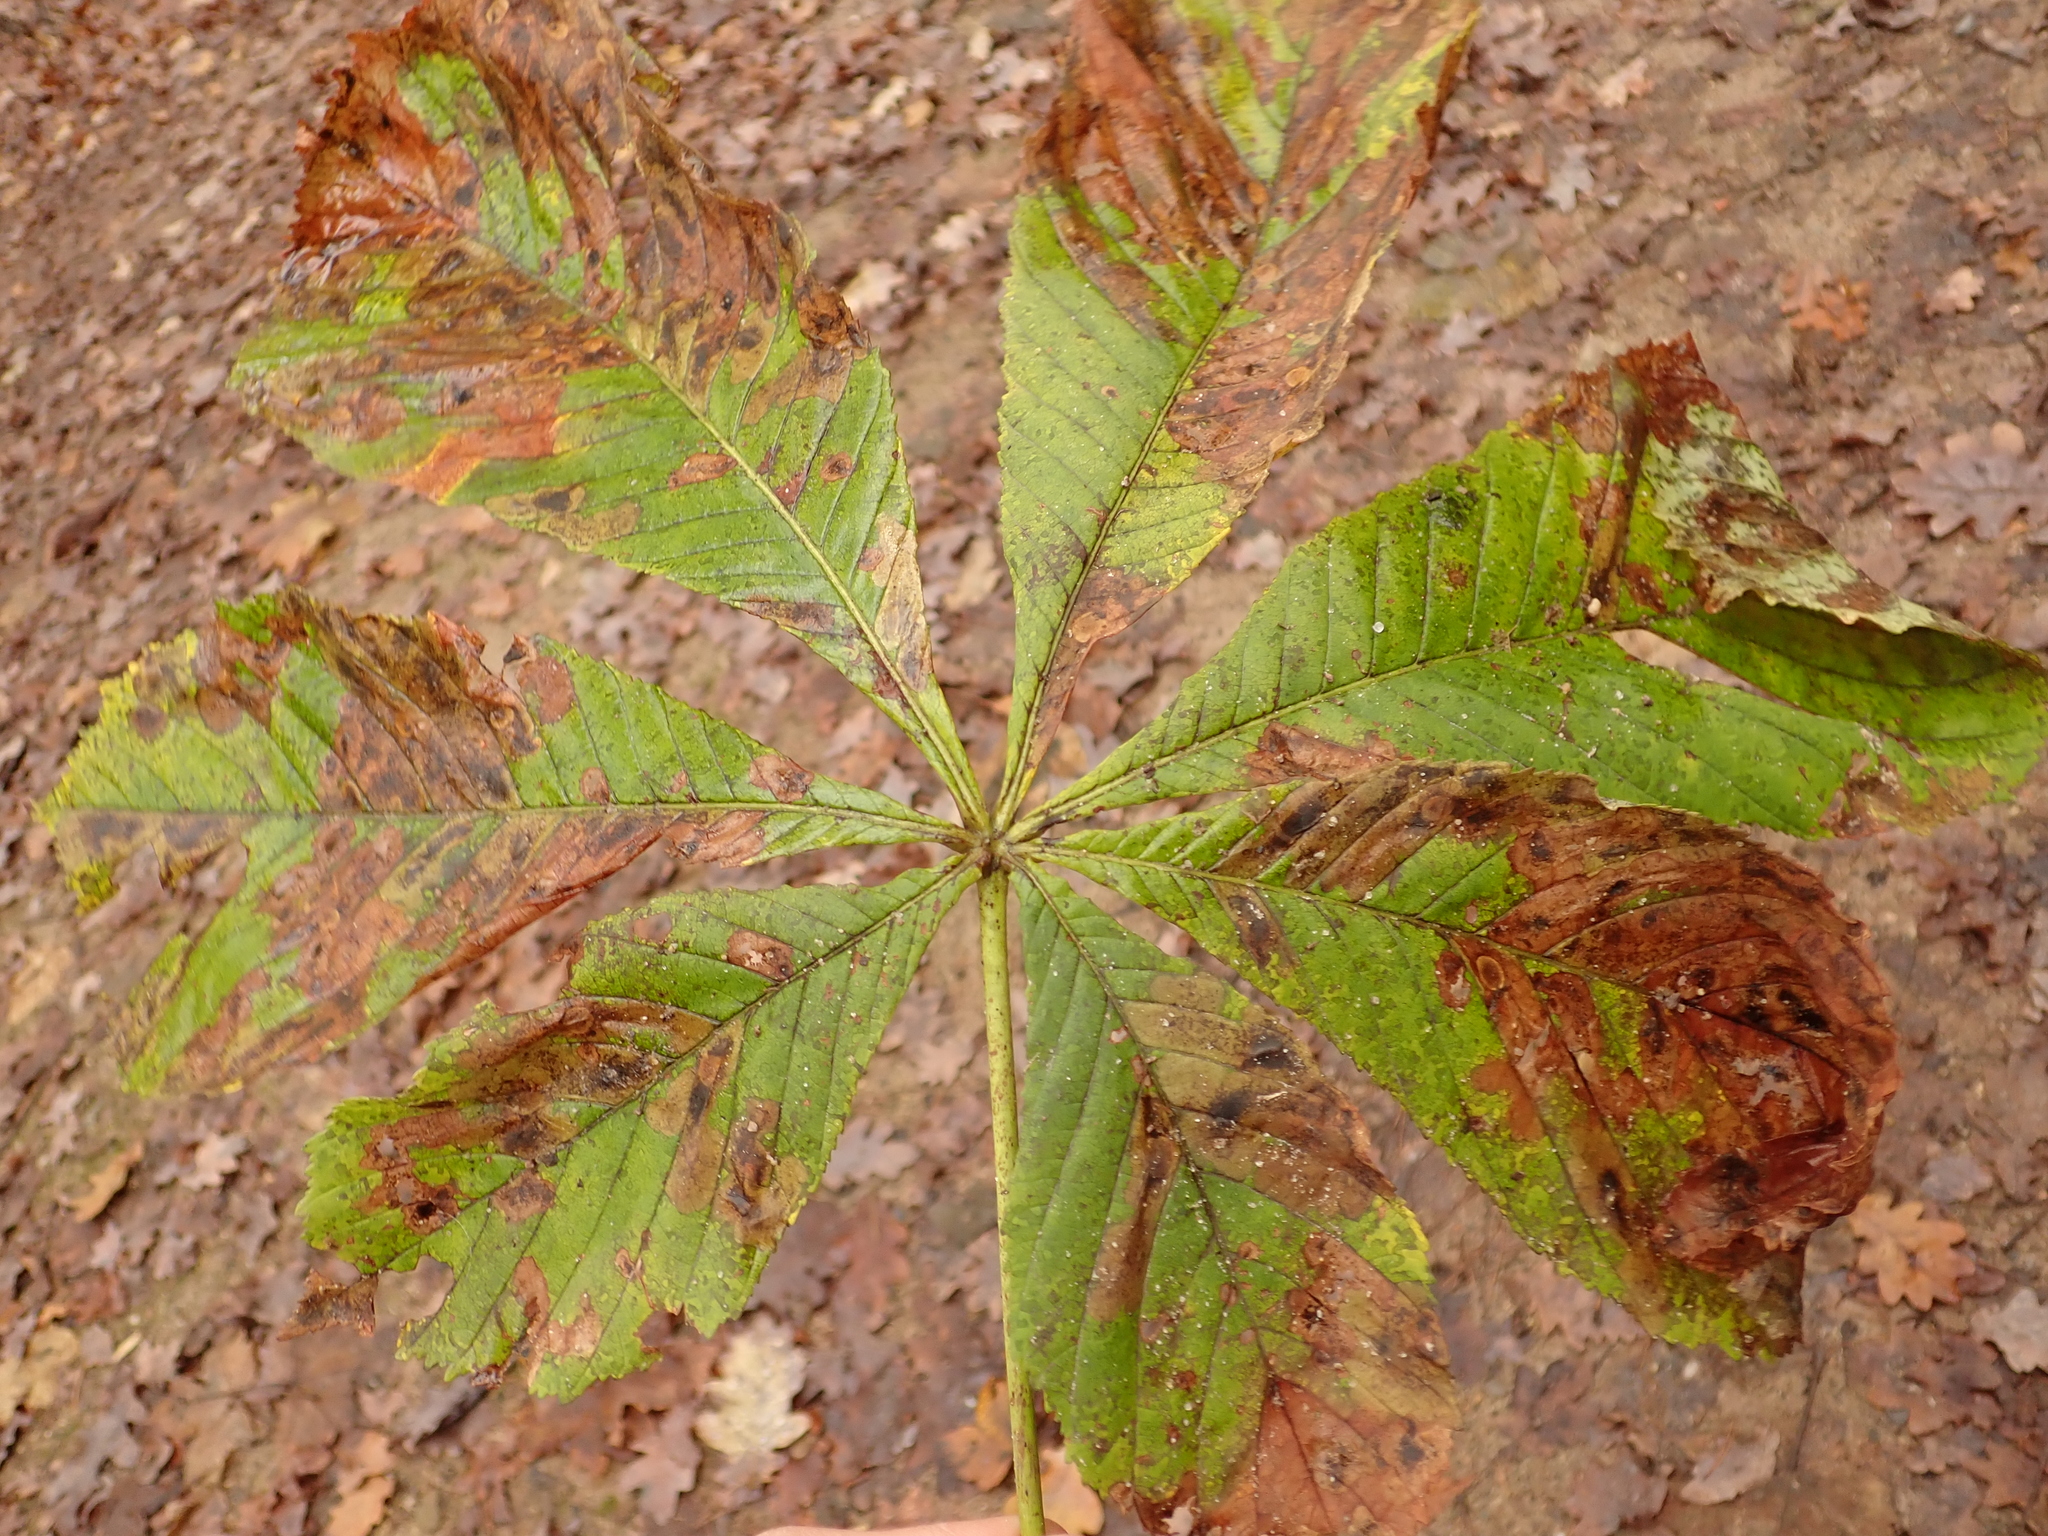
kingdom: Plantae
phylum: Tracheophyta
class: Magnoliopsida
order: Sapindales
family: Sapindaceae
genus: Aesculus
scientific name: Aesculus hippocastanum
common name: Horse-chestnut
